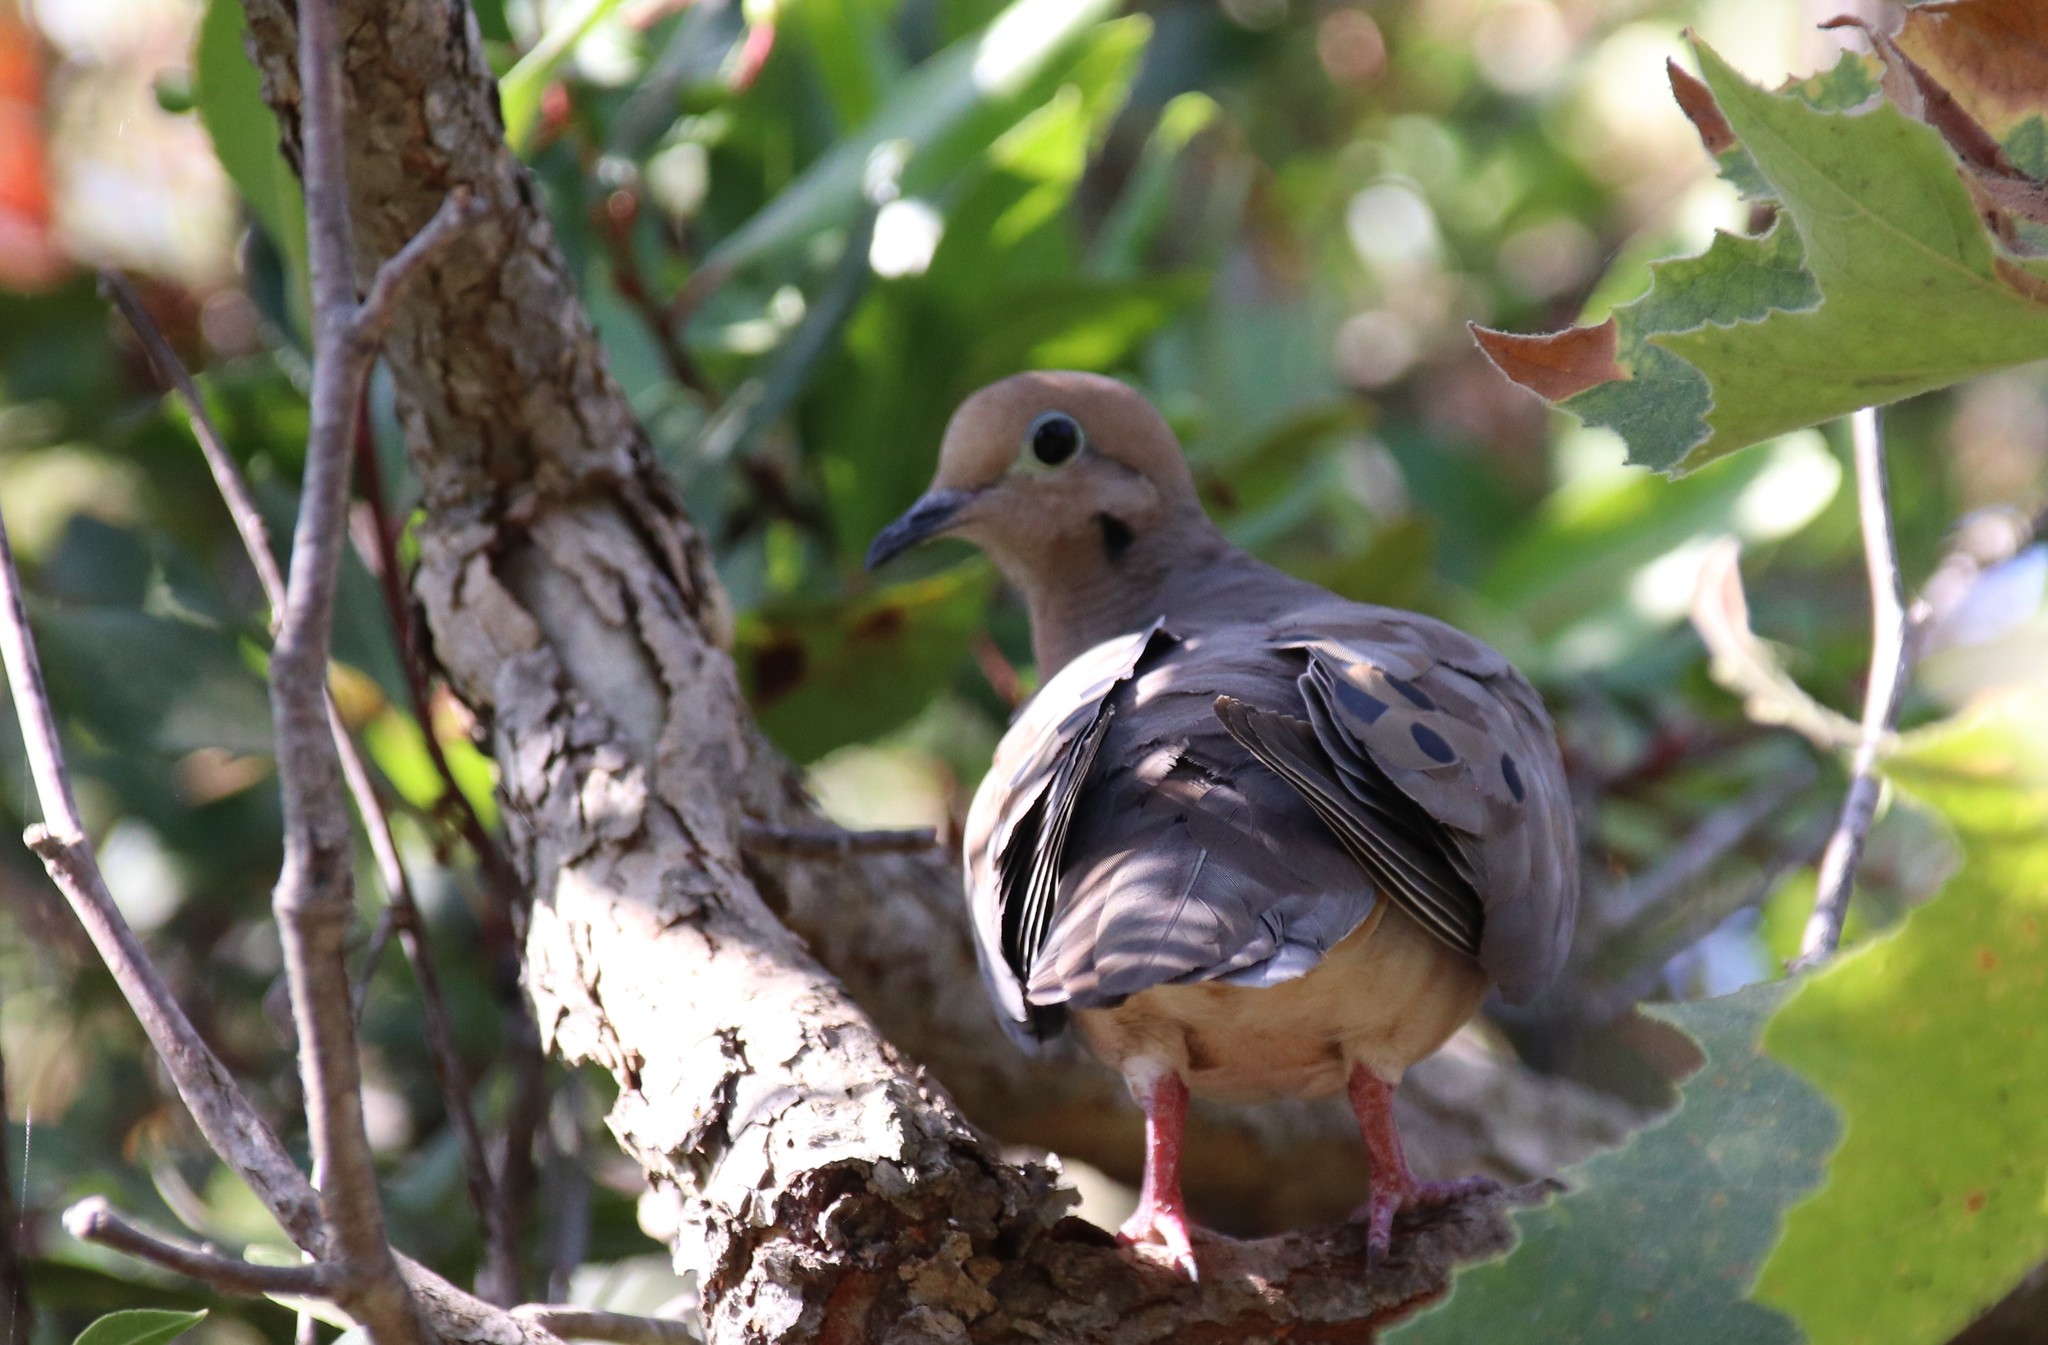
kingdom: Animalia
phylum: Chordata
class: Aves
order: Columbiformes
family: Columbidae
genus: Zenaida
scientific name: Zenaida macroura
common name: Mourning dove
